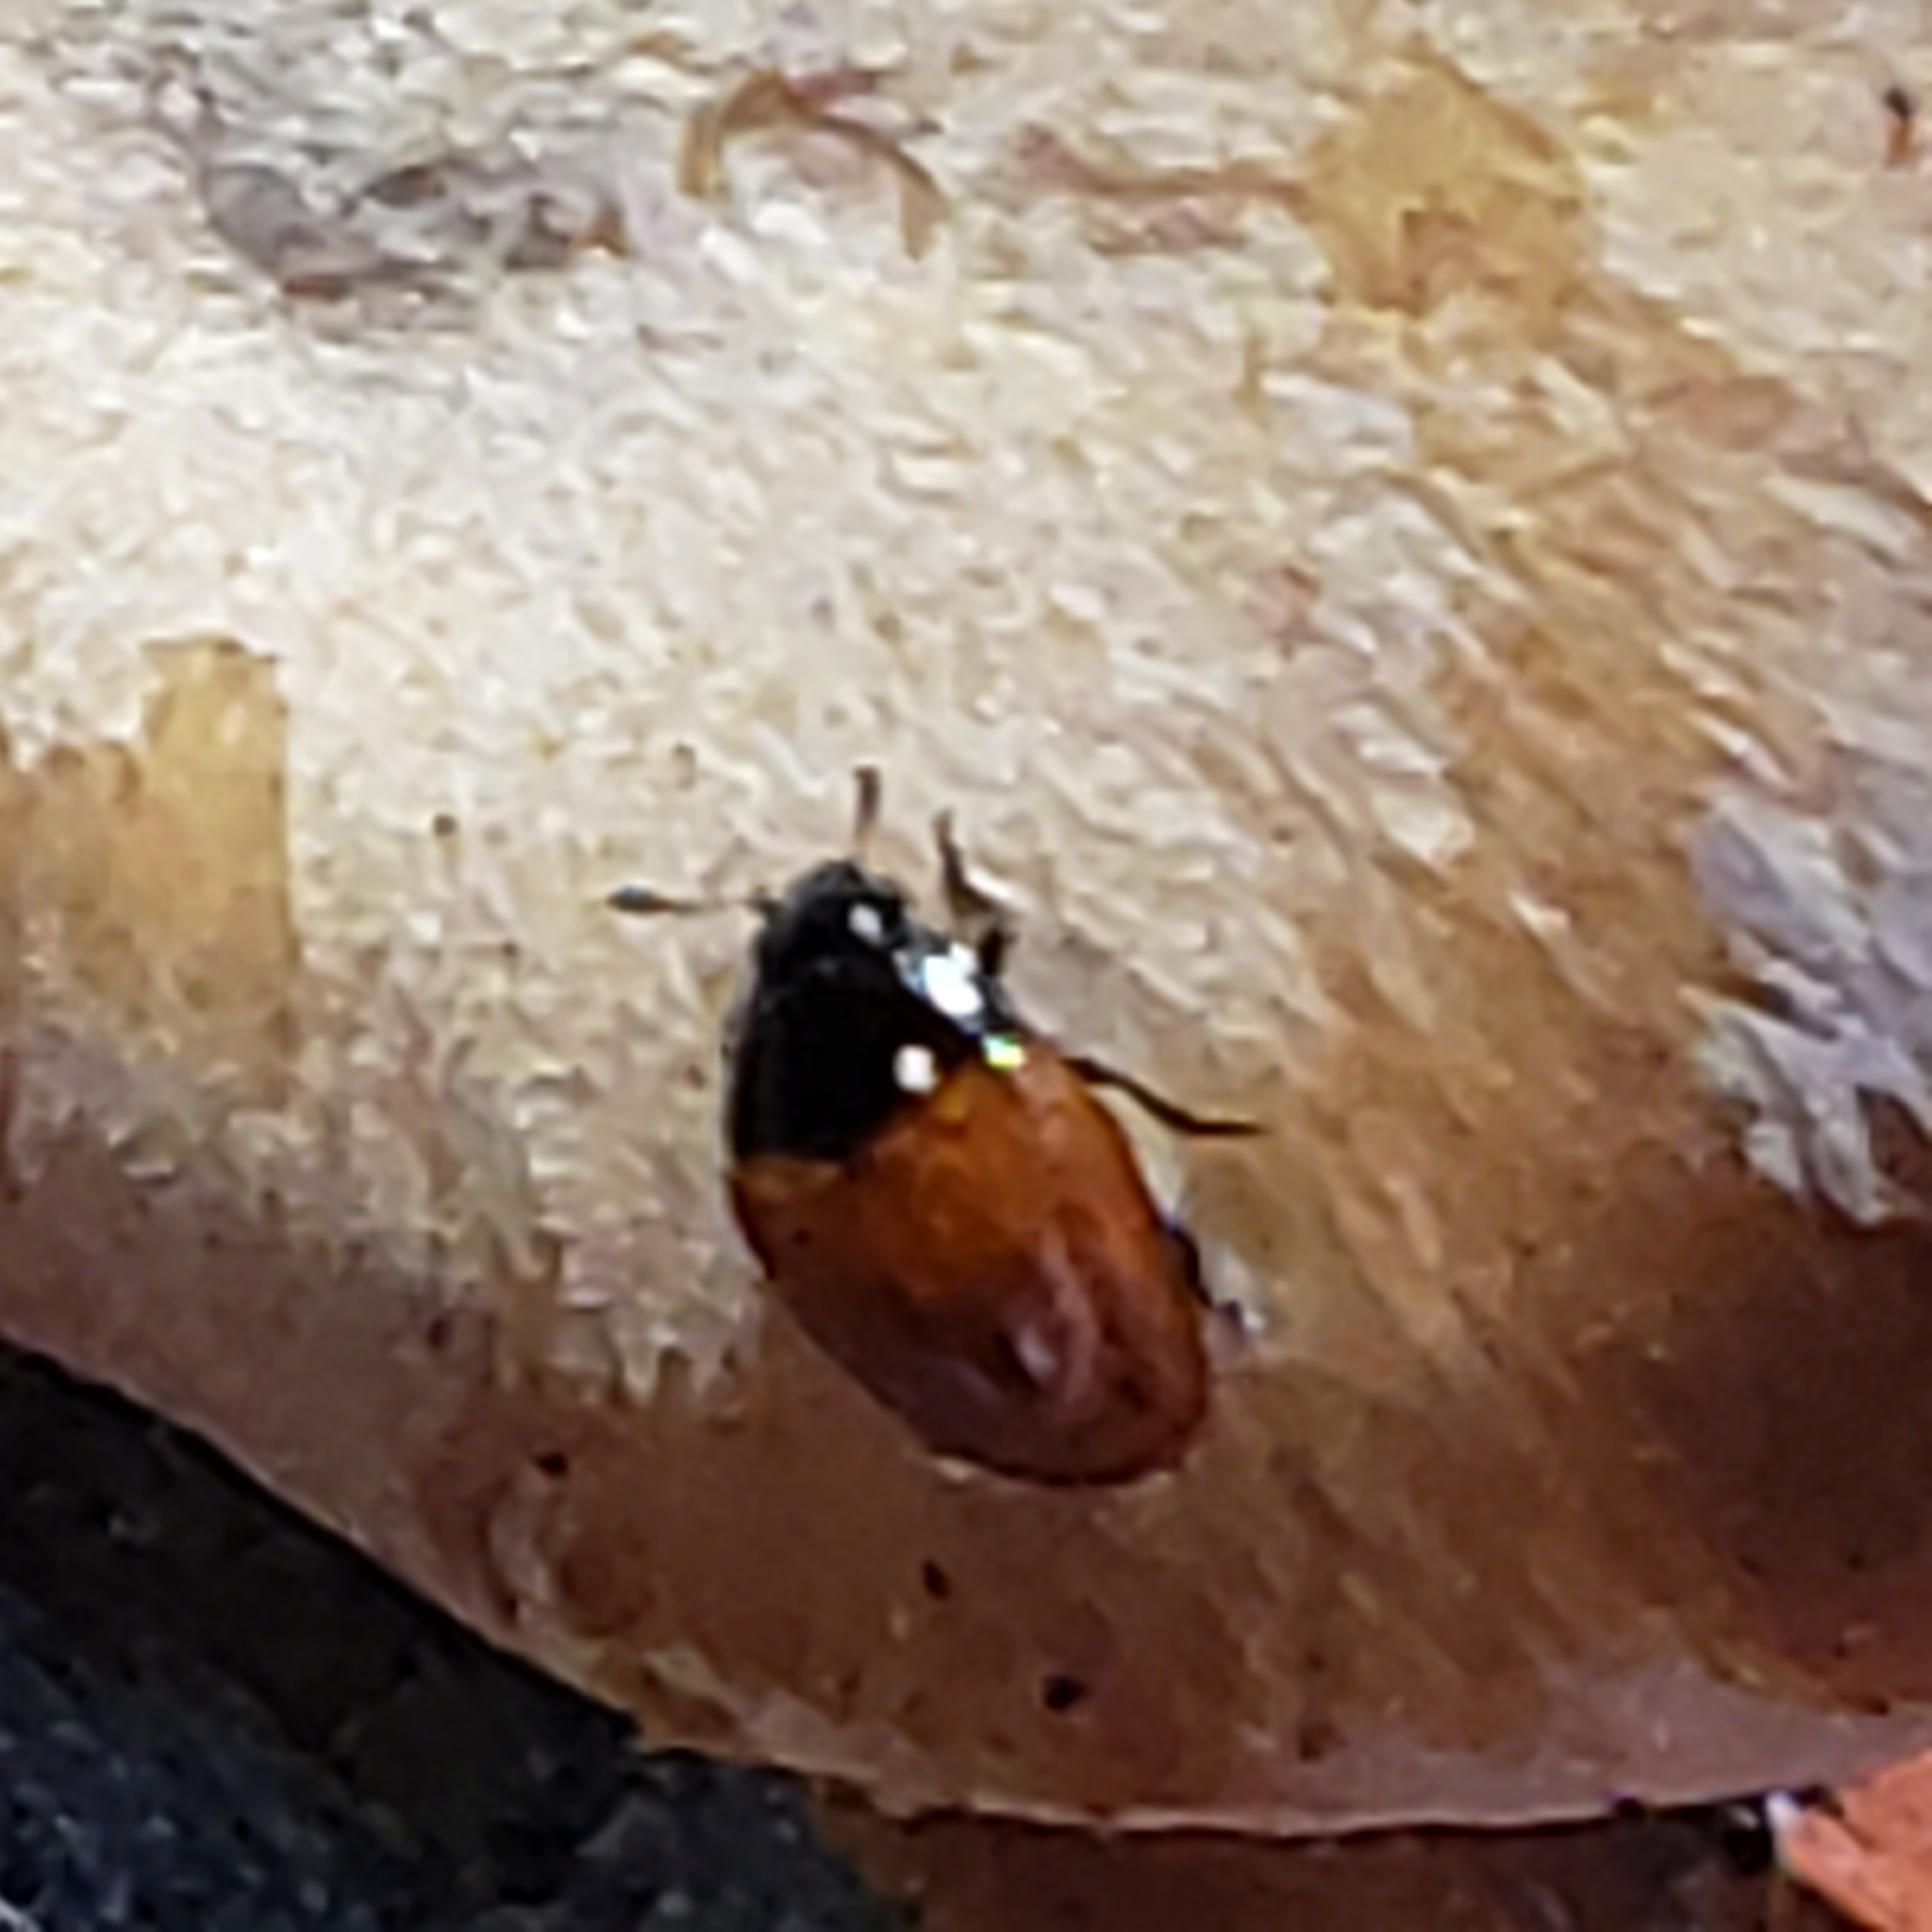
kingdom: Animalia
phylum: Arthropoda
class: Insecta
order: Coleoptera
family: Erotylidae
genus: Tritoma
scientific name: Tritoma sanguinipennis
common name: Red-winged tritoma
